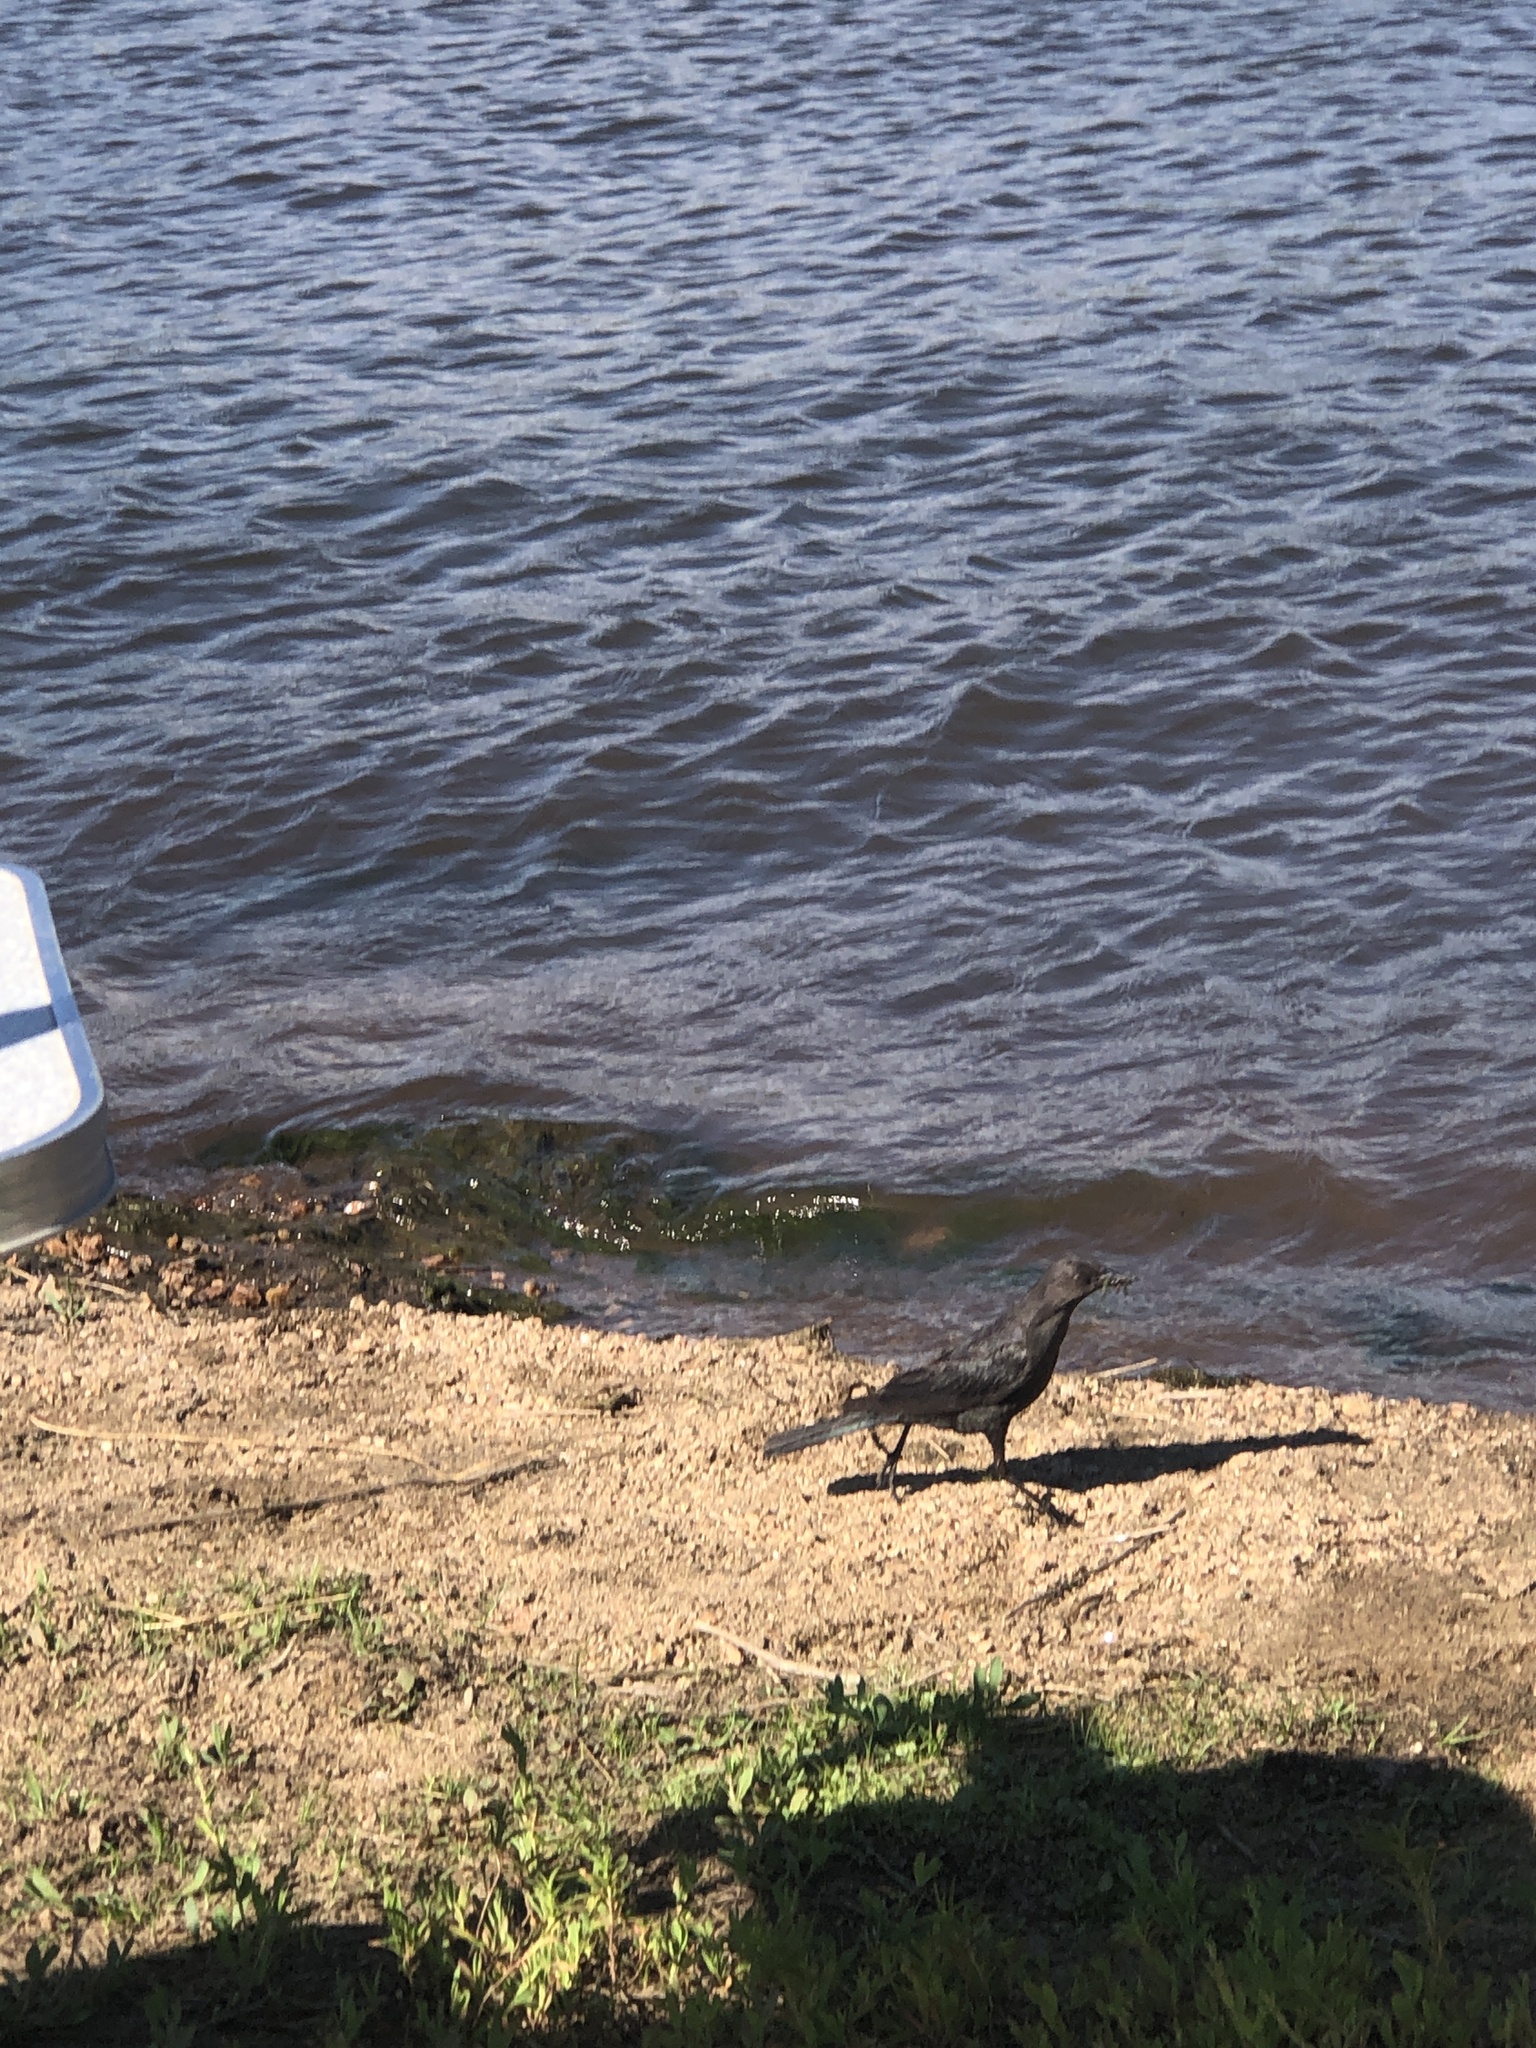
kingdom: Animalia
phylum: Chordata
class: Aves
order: Passeriformes
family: Icteridae
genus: Euphagus
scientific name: Euphagus cyanocephalus
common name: Brewer's blackbird
